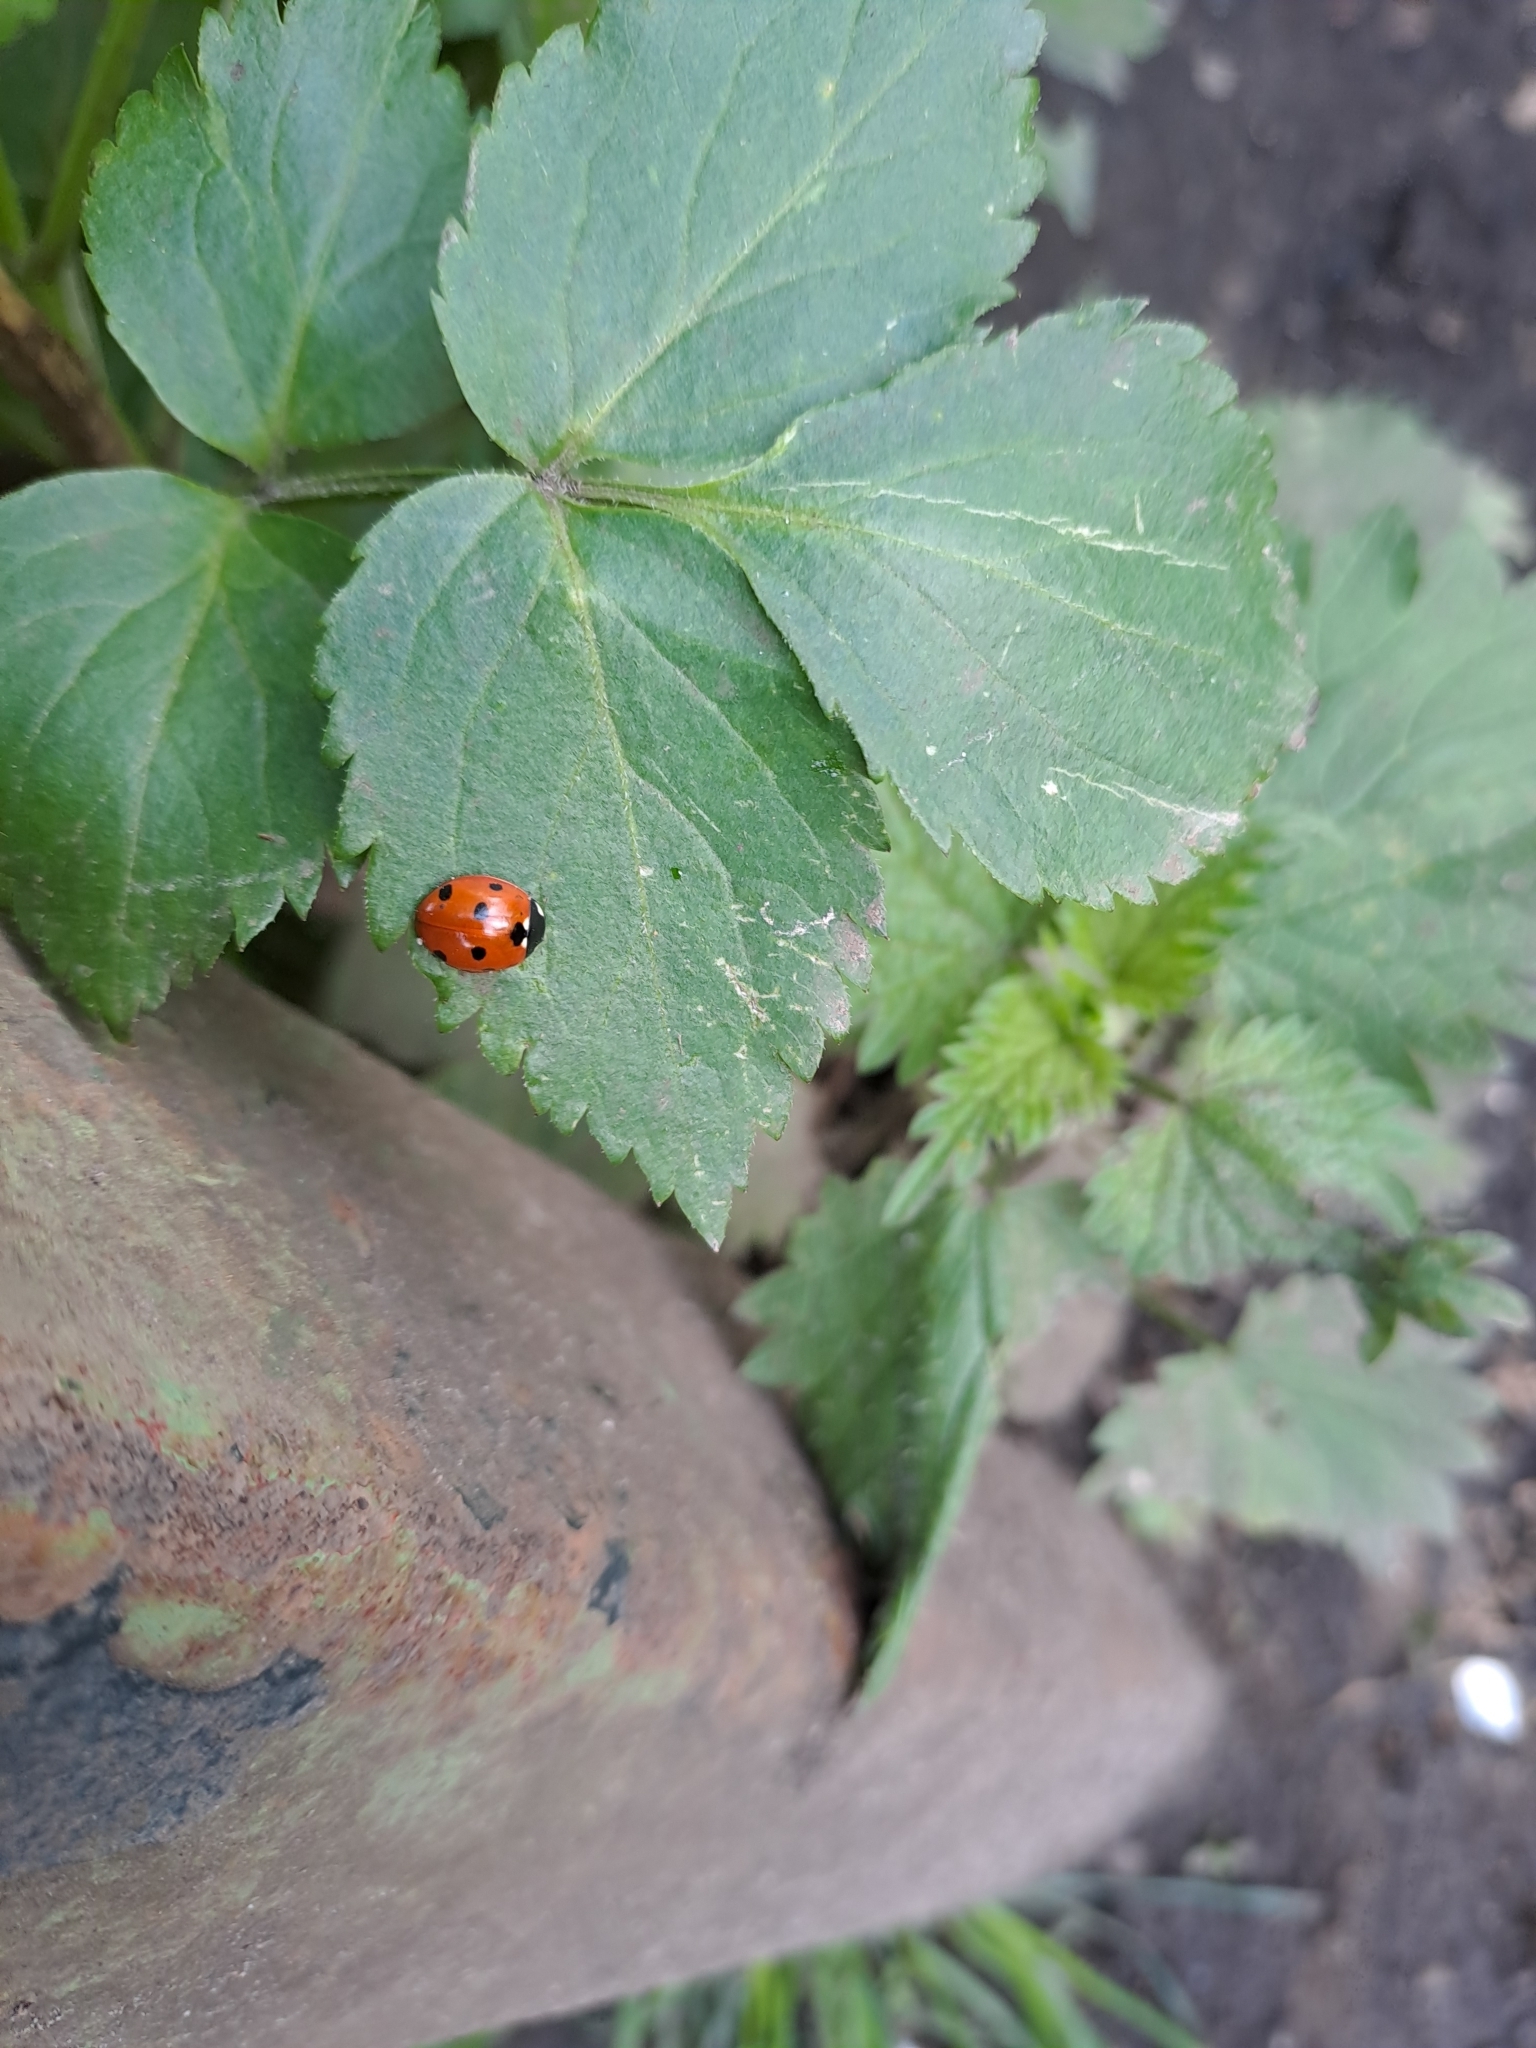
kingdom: Animalia
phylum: Arthropoda
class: Insecta
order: Coleoptera
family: Coccinellidae
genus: Coccinella
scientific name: Coccinella septempunctata
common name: Sevenspotted lady beetle
